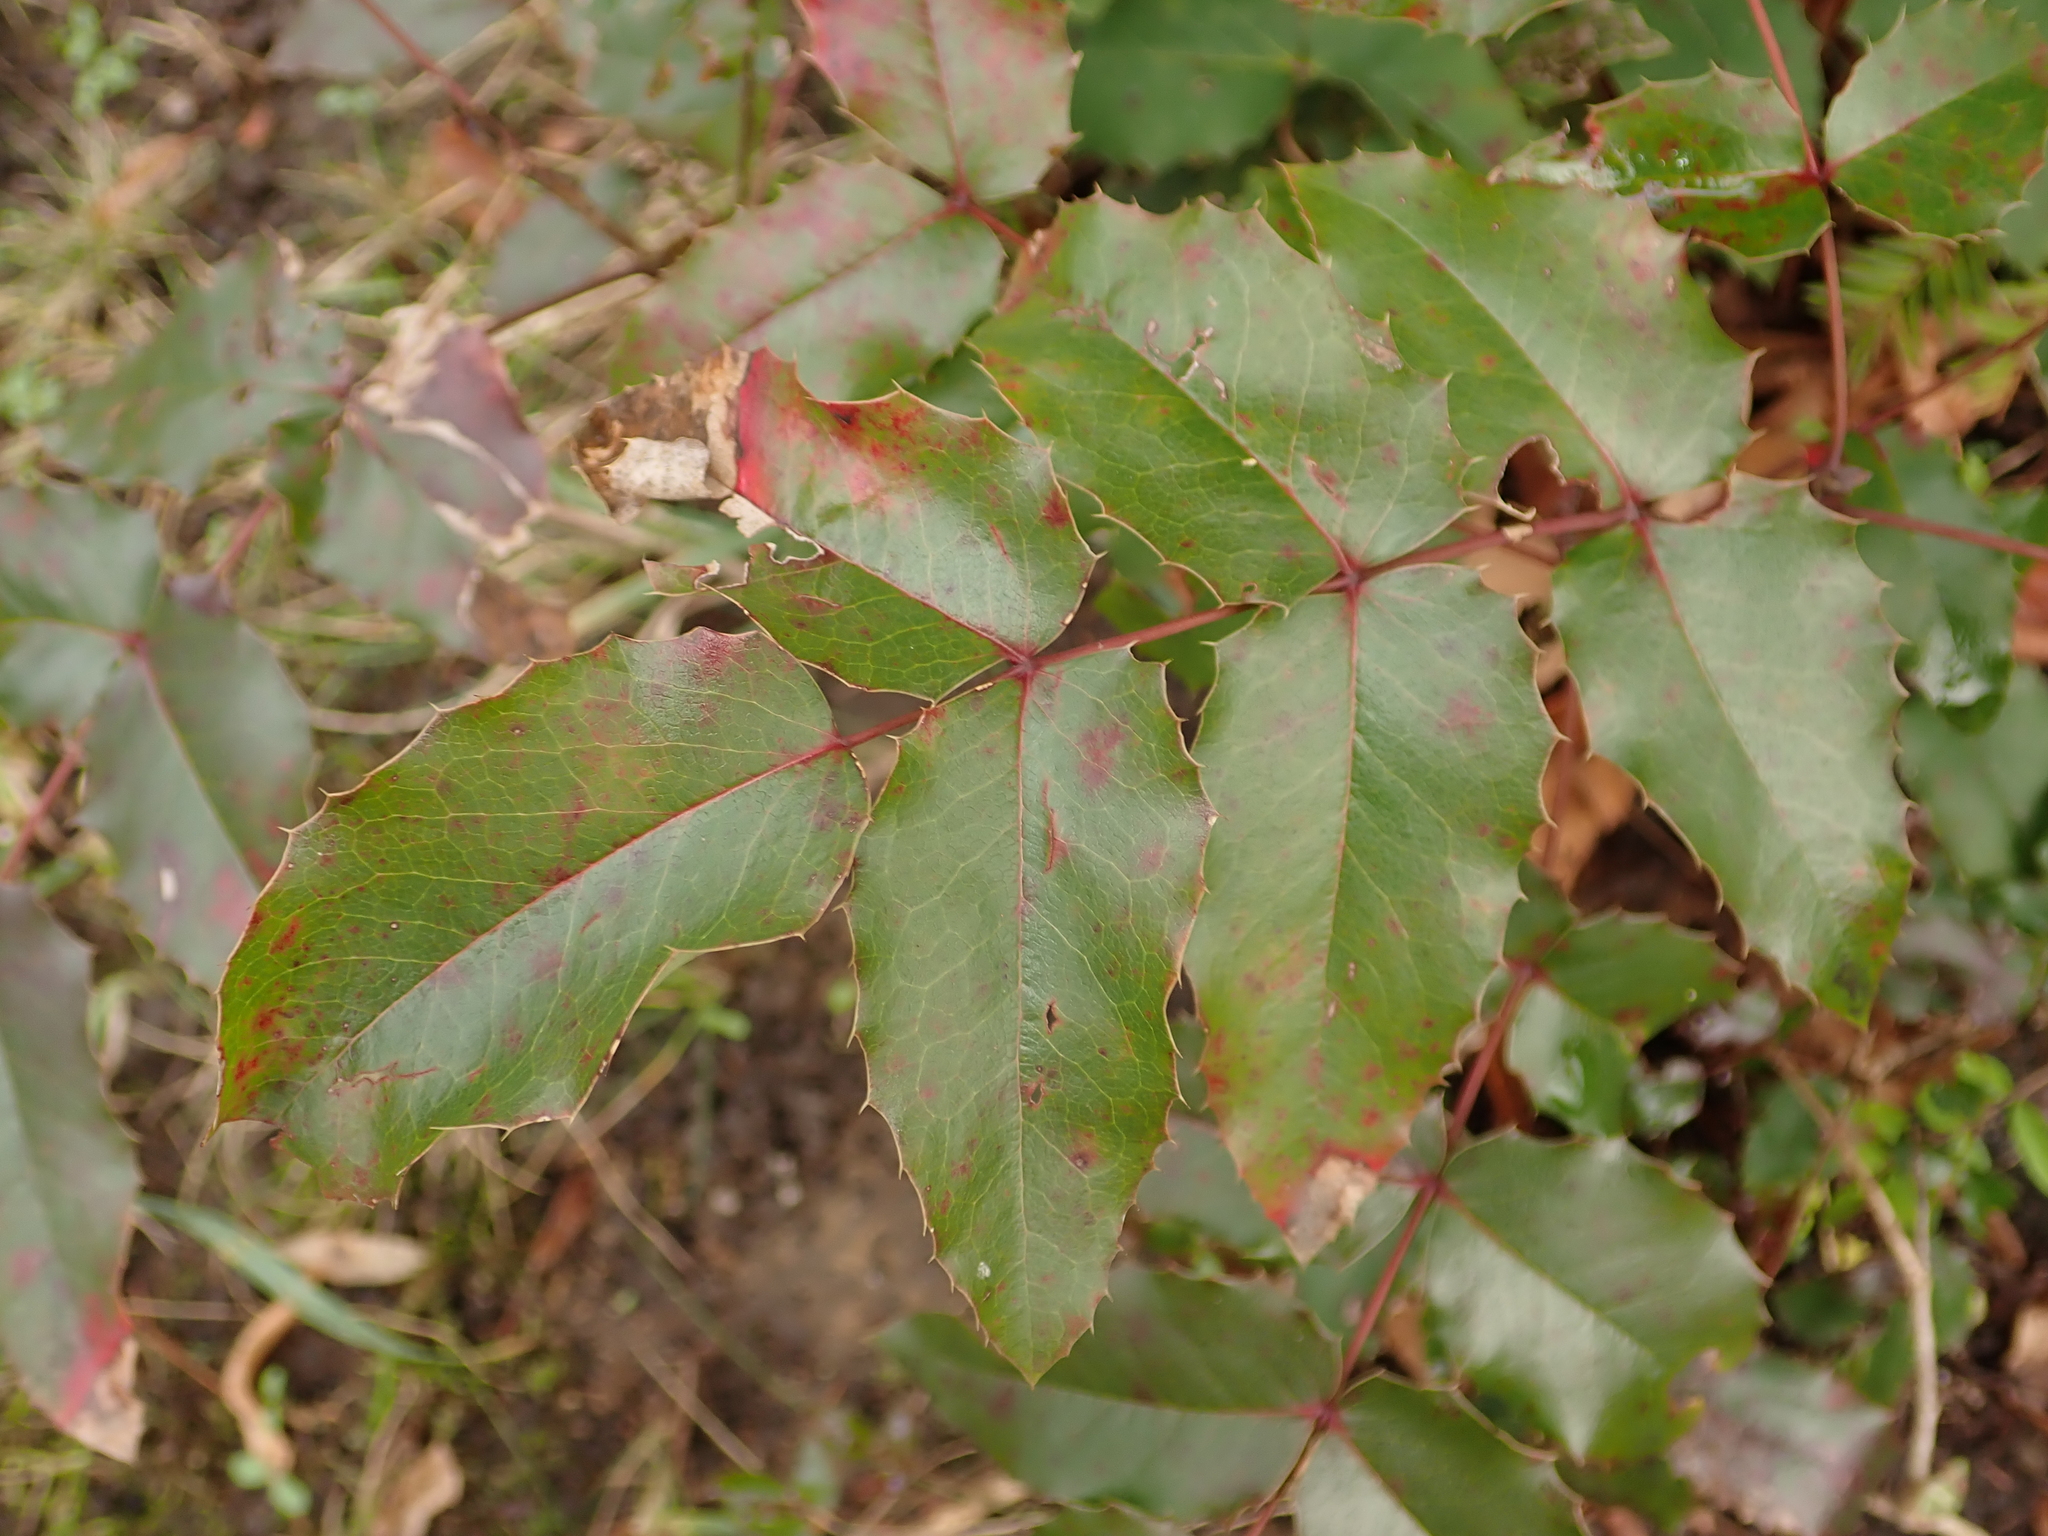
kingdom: Plantae
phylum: Tracheophyta
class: Magnoliopsida
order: Ranunculales
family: Berberidaceae
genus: Mahonia
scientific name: Mahonia aquifolium
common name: Oregon-grape
